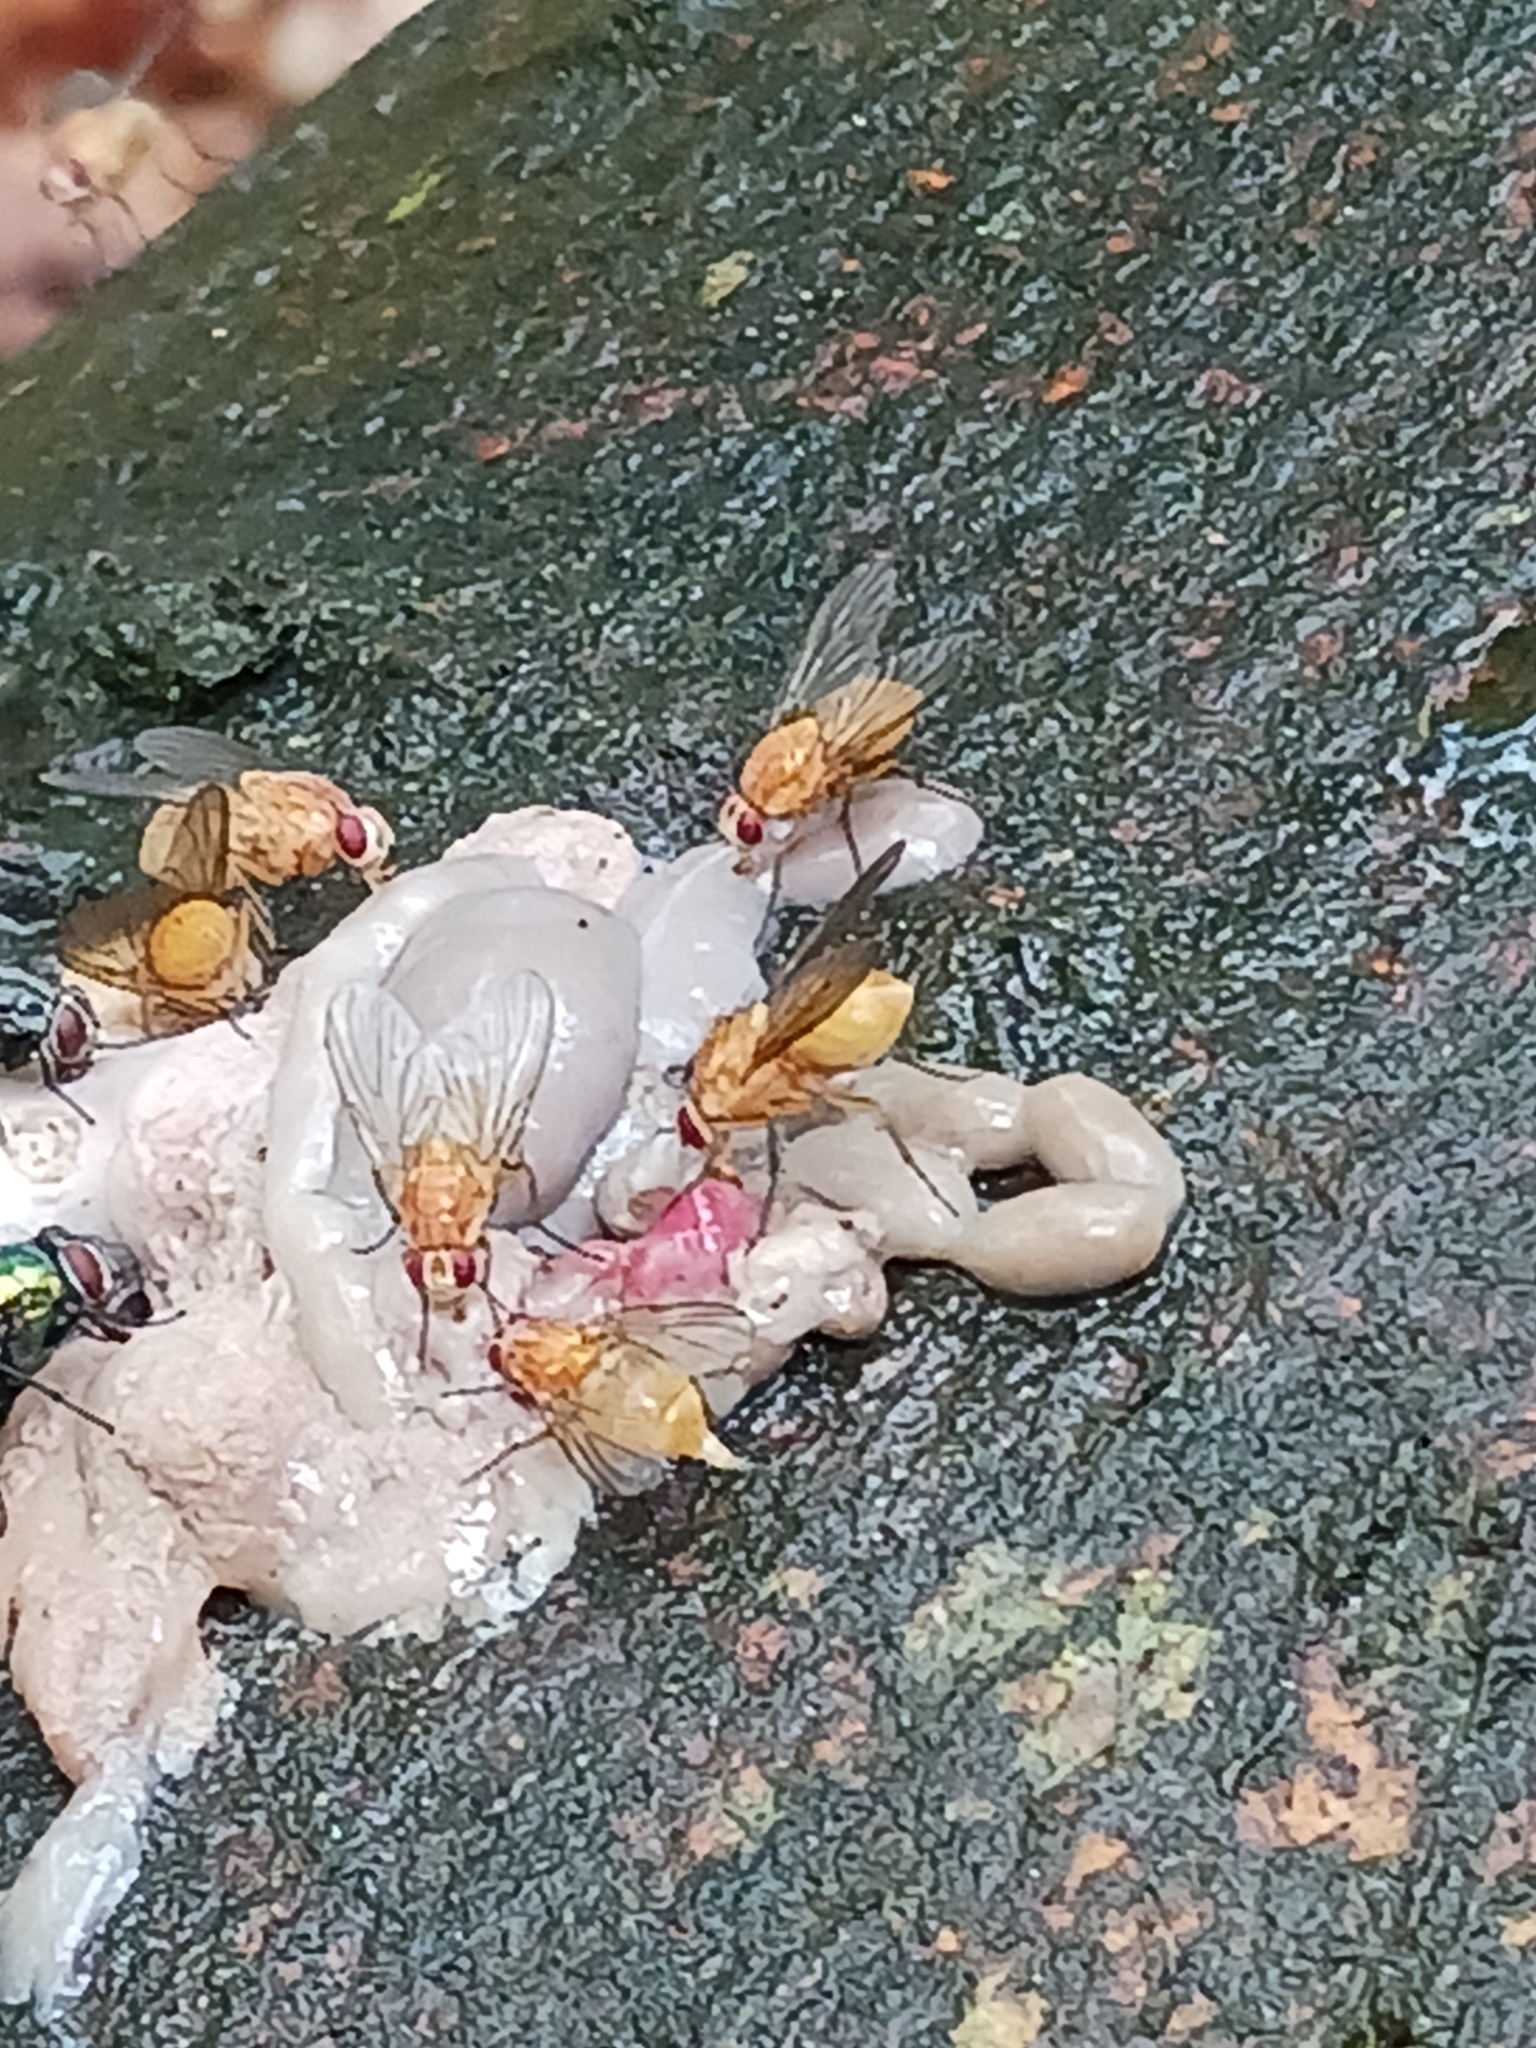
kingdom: Animalia
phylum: Arthropoda
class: Insecta
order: Diptera
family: Muscidae
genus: Phaonia
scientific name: Phaonia pallida
